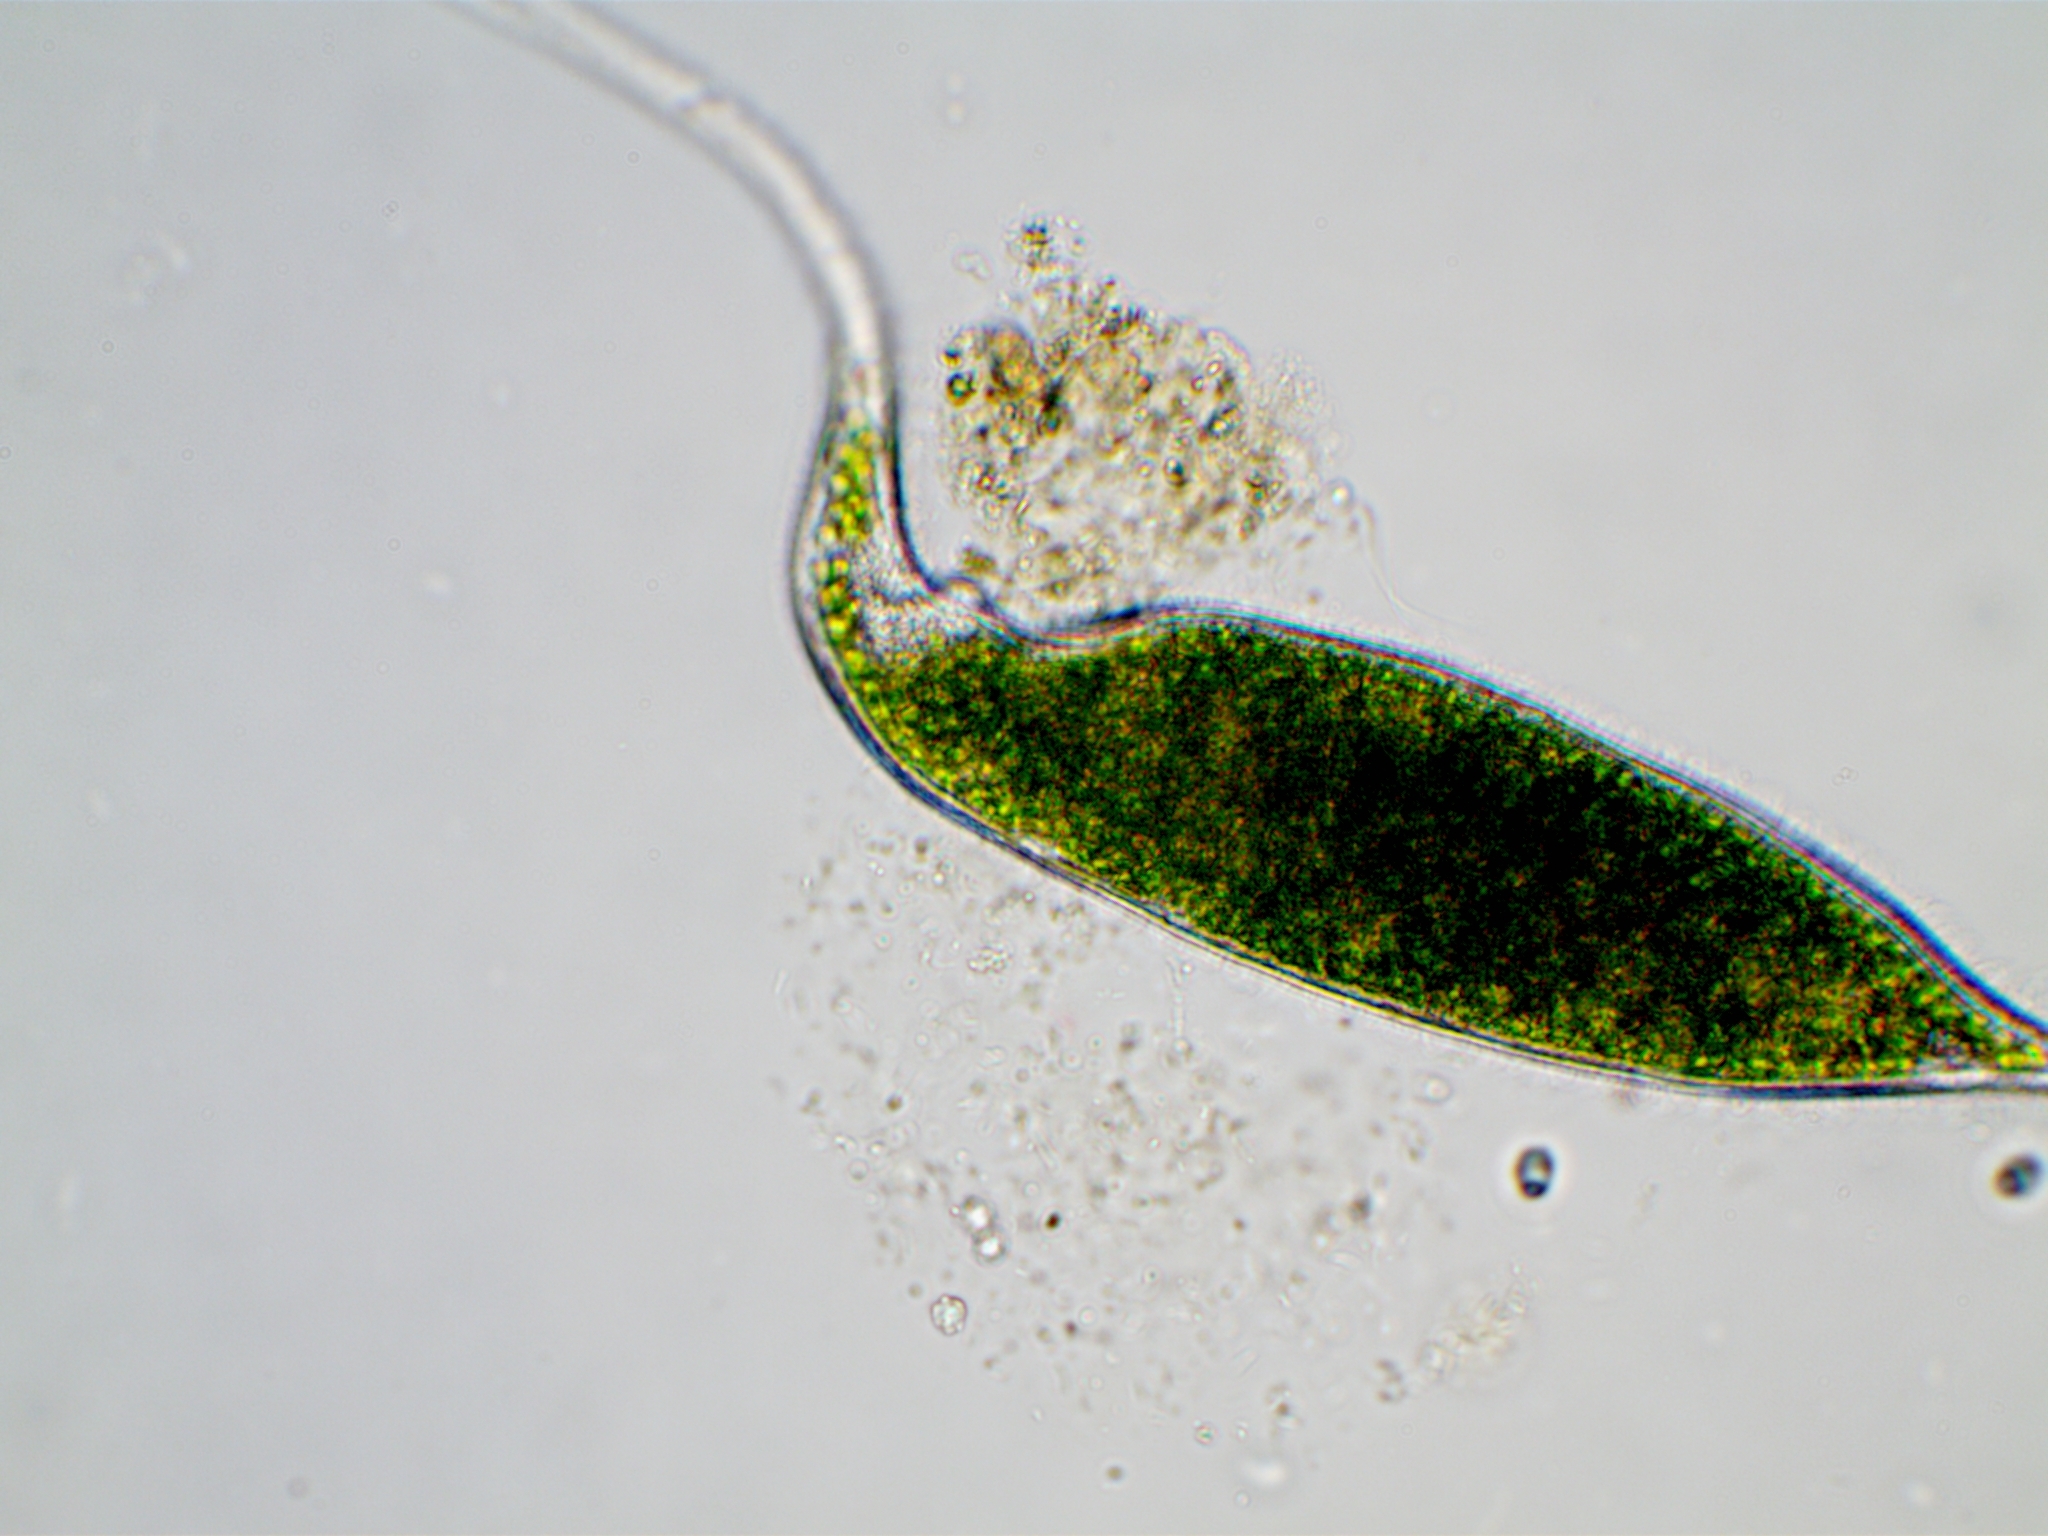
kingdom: Chromista
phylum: Ciliophora
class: Litostomatea
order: Dileptida
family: Dileptidae
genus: Dileptus
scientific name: Dileptus viridis
